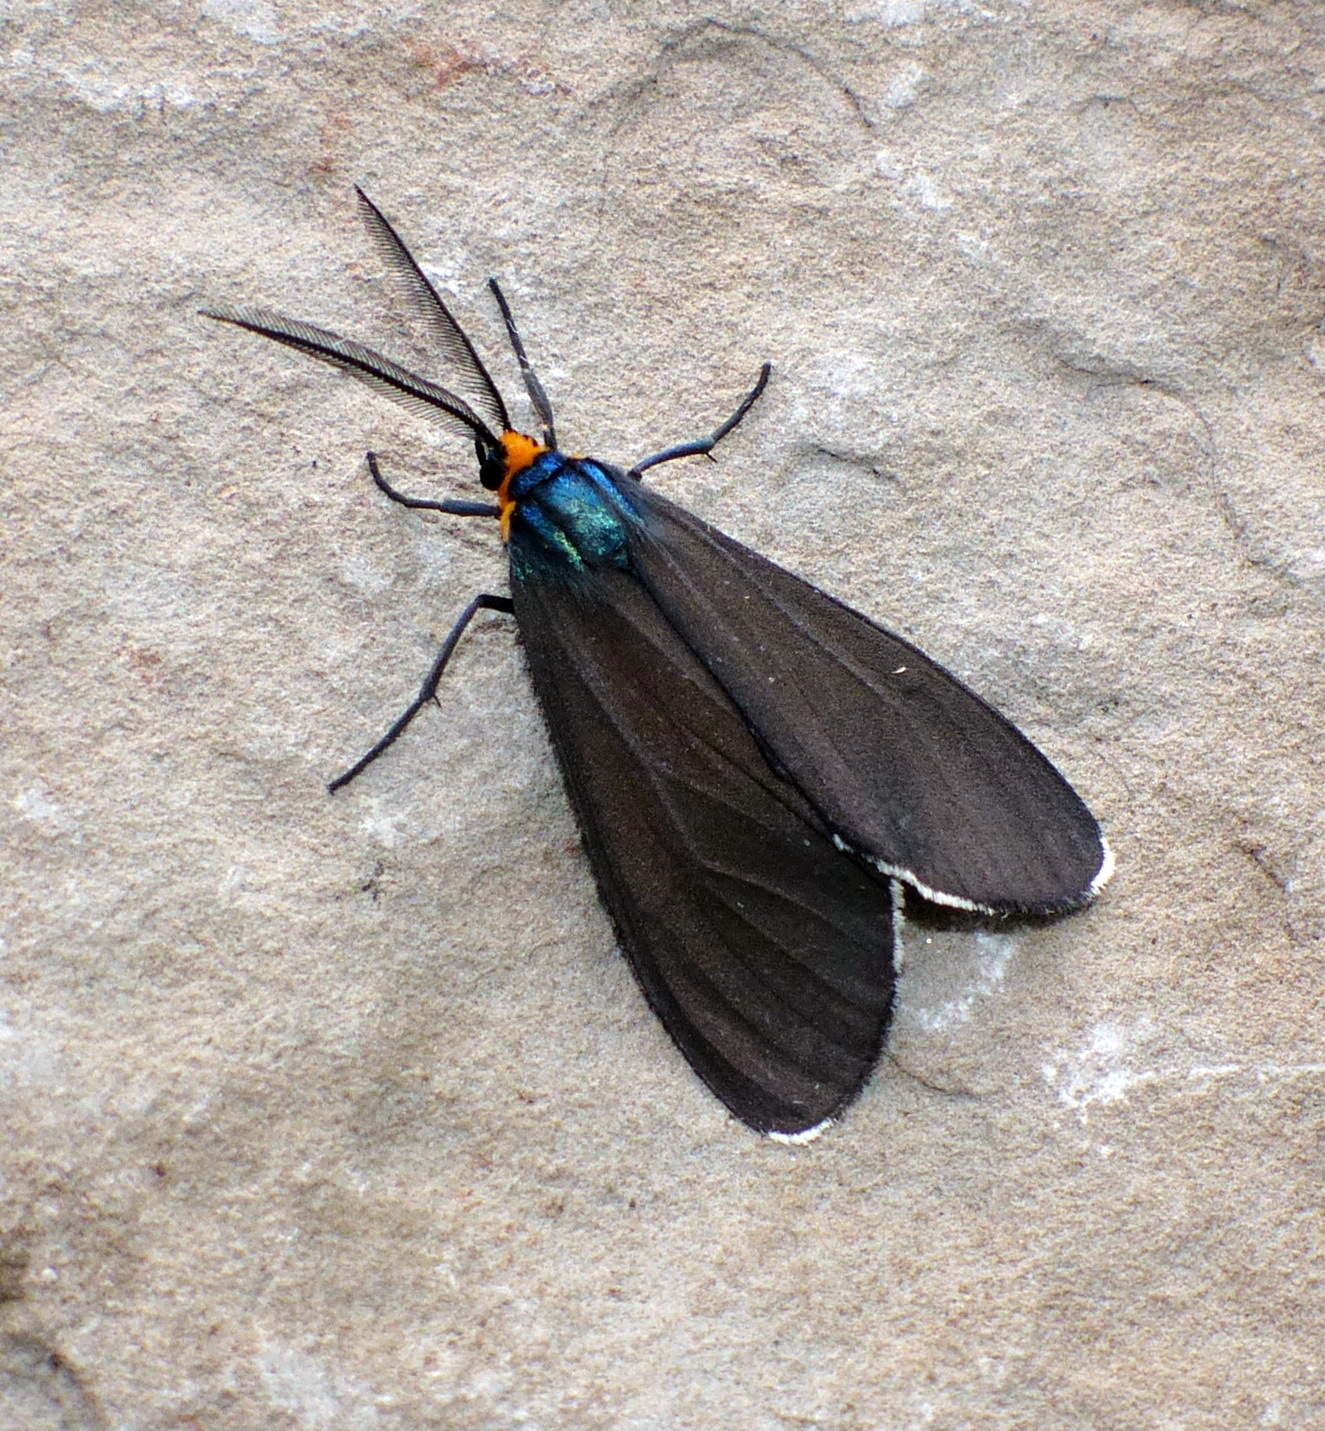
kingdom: Animalia
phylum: Arthropoda
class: Insecta
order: Lepidoptera
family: Erebidae
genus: Ctenucha
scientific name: Ctenucha virginica
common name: Virginia ctenucha moth
